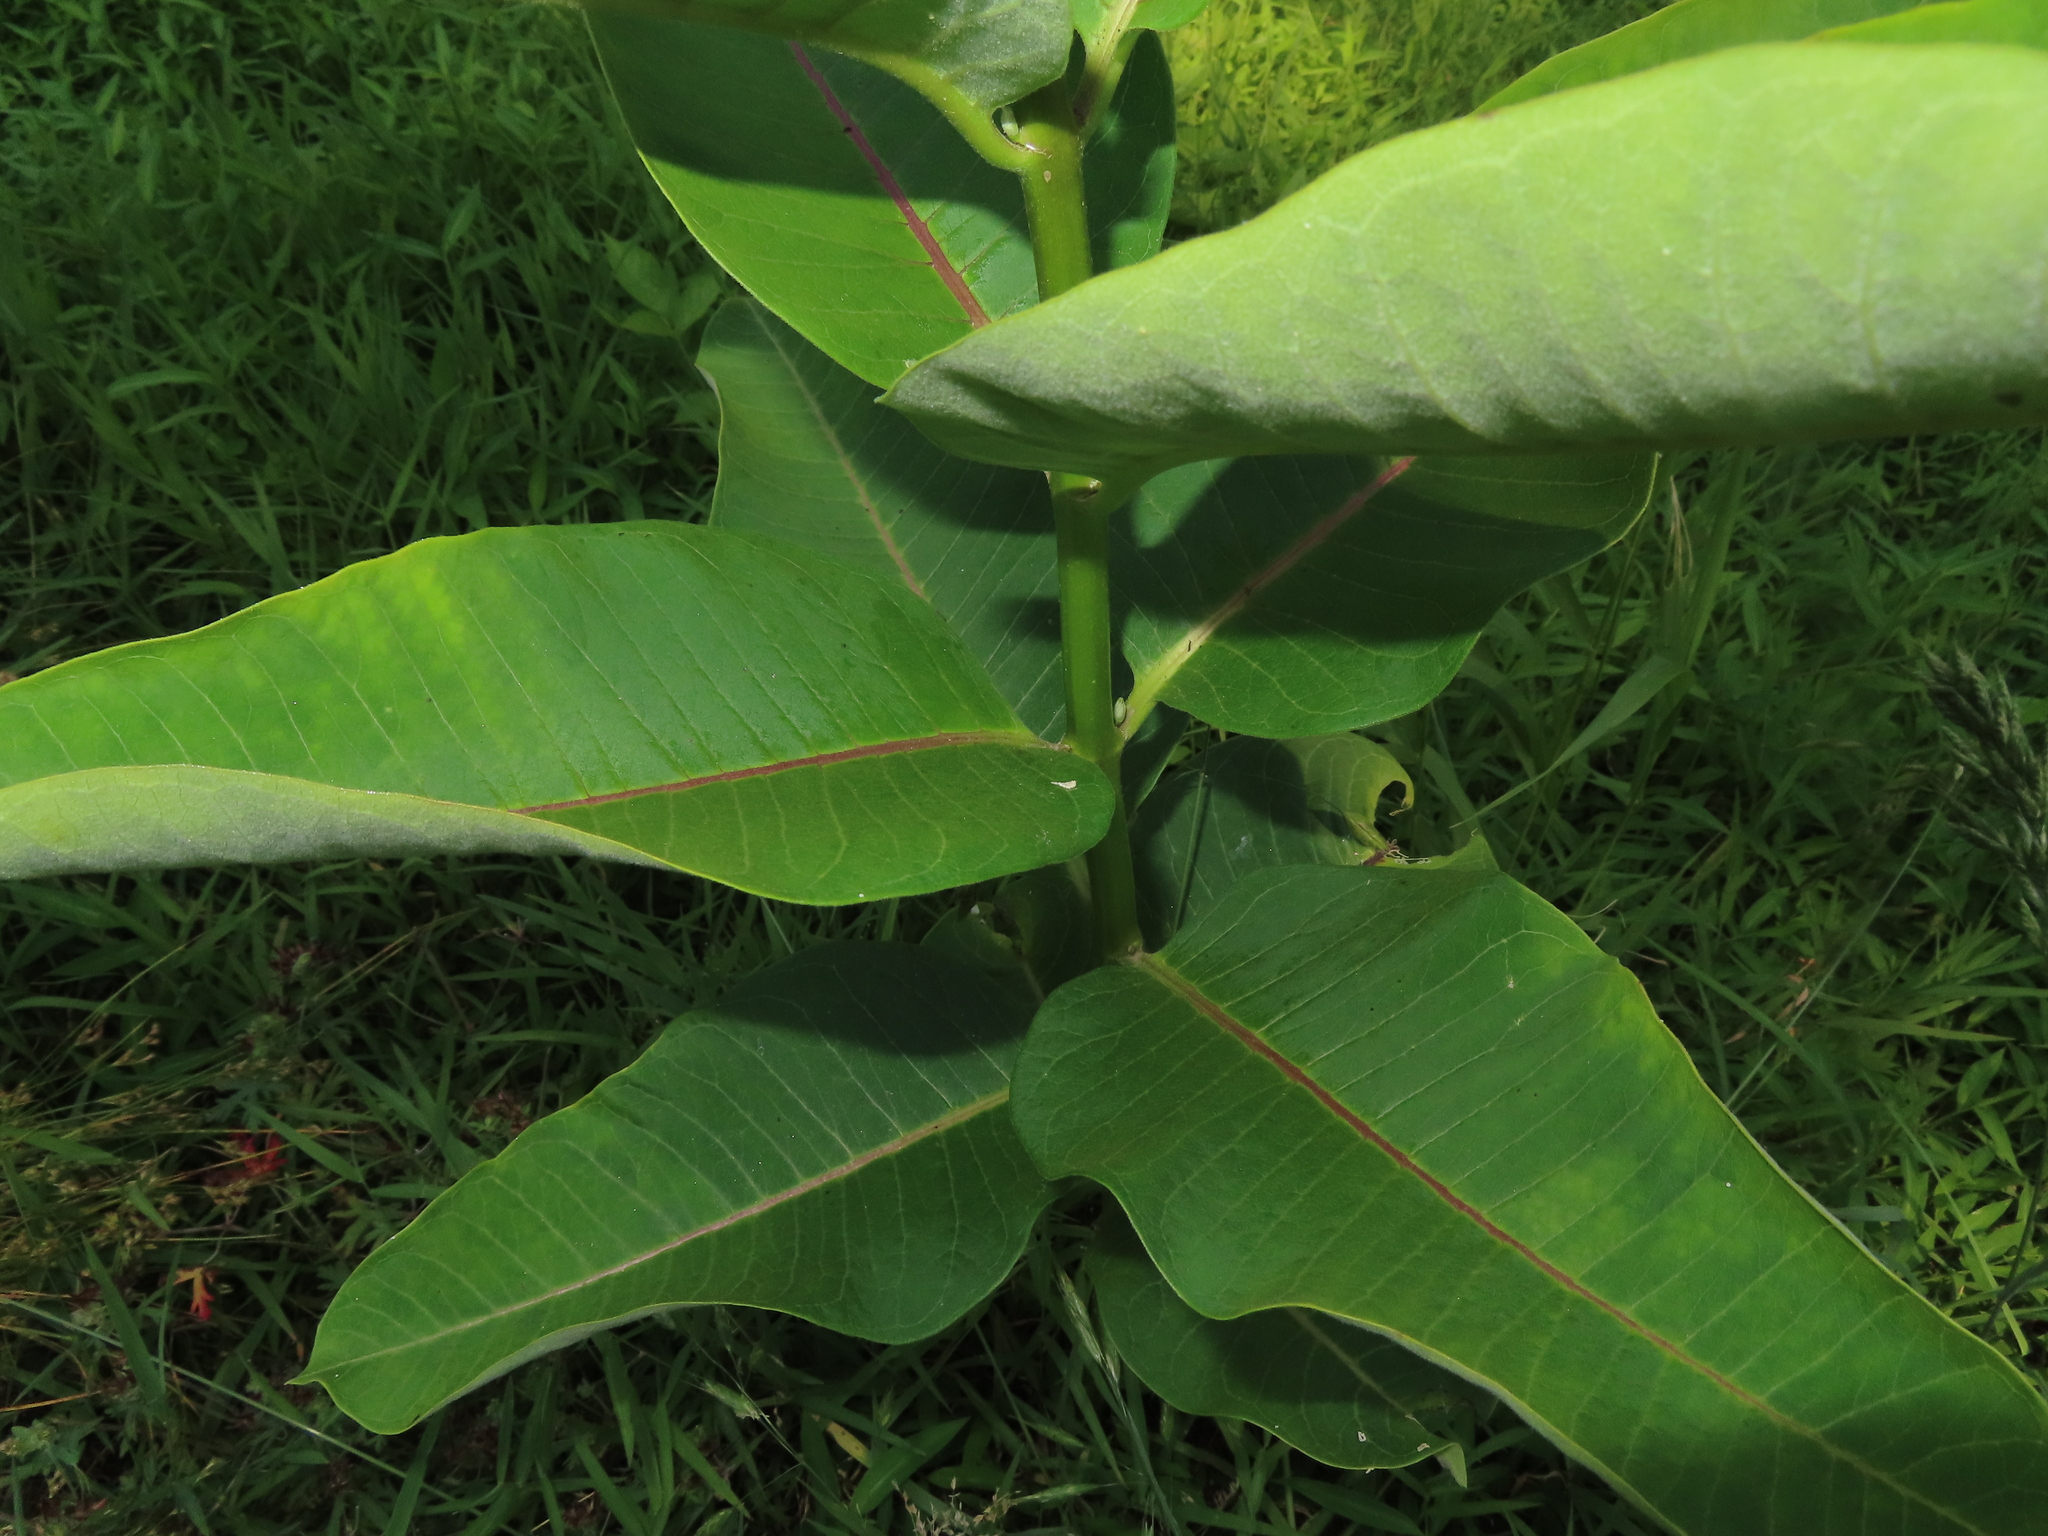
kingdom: Plantae
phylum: Tracheophyta
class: Magnoliopsida
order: Gentianales
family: Apocynaceae
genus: Asclepias
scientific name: Asclepias syriaca
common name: Common milkweed
